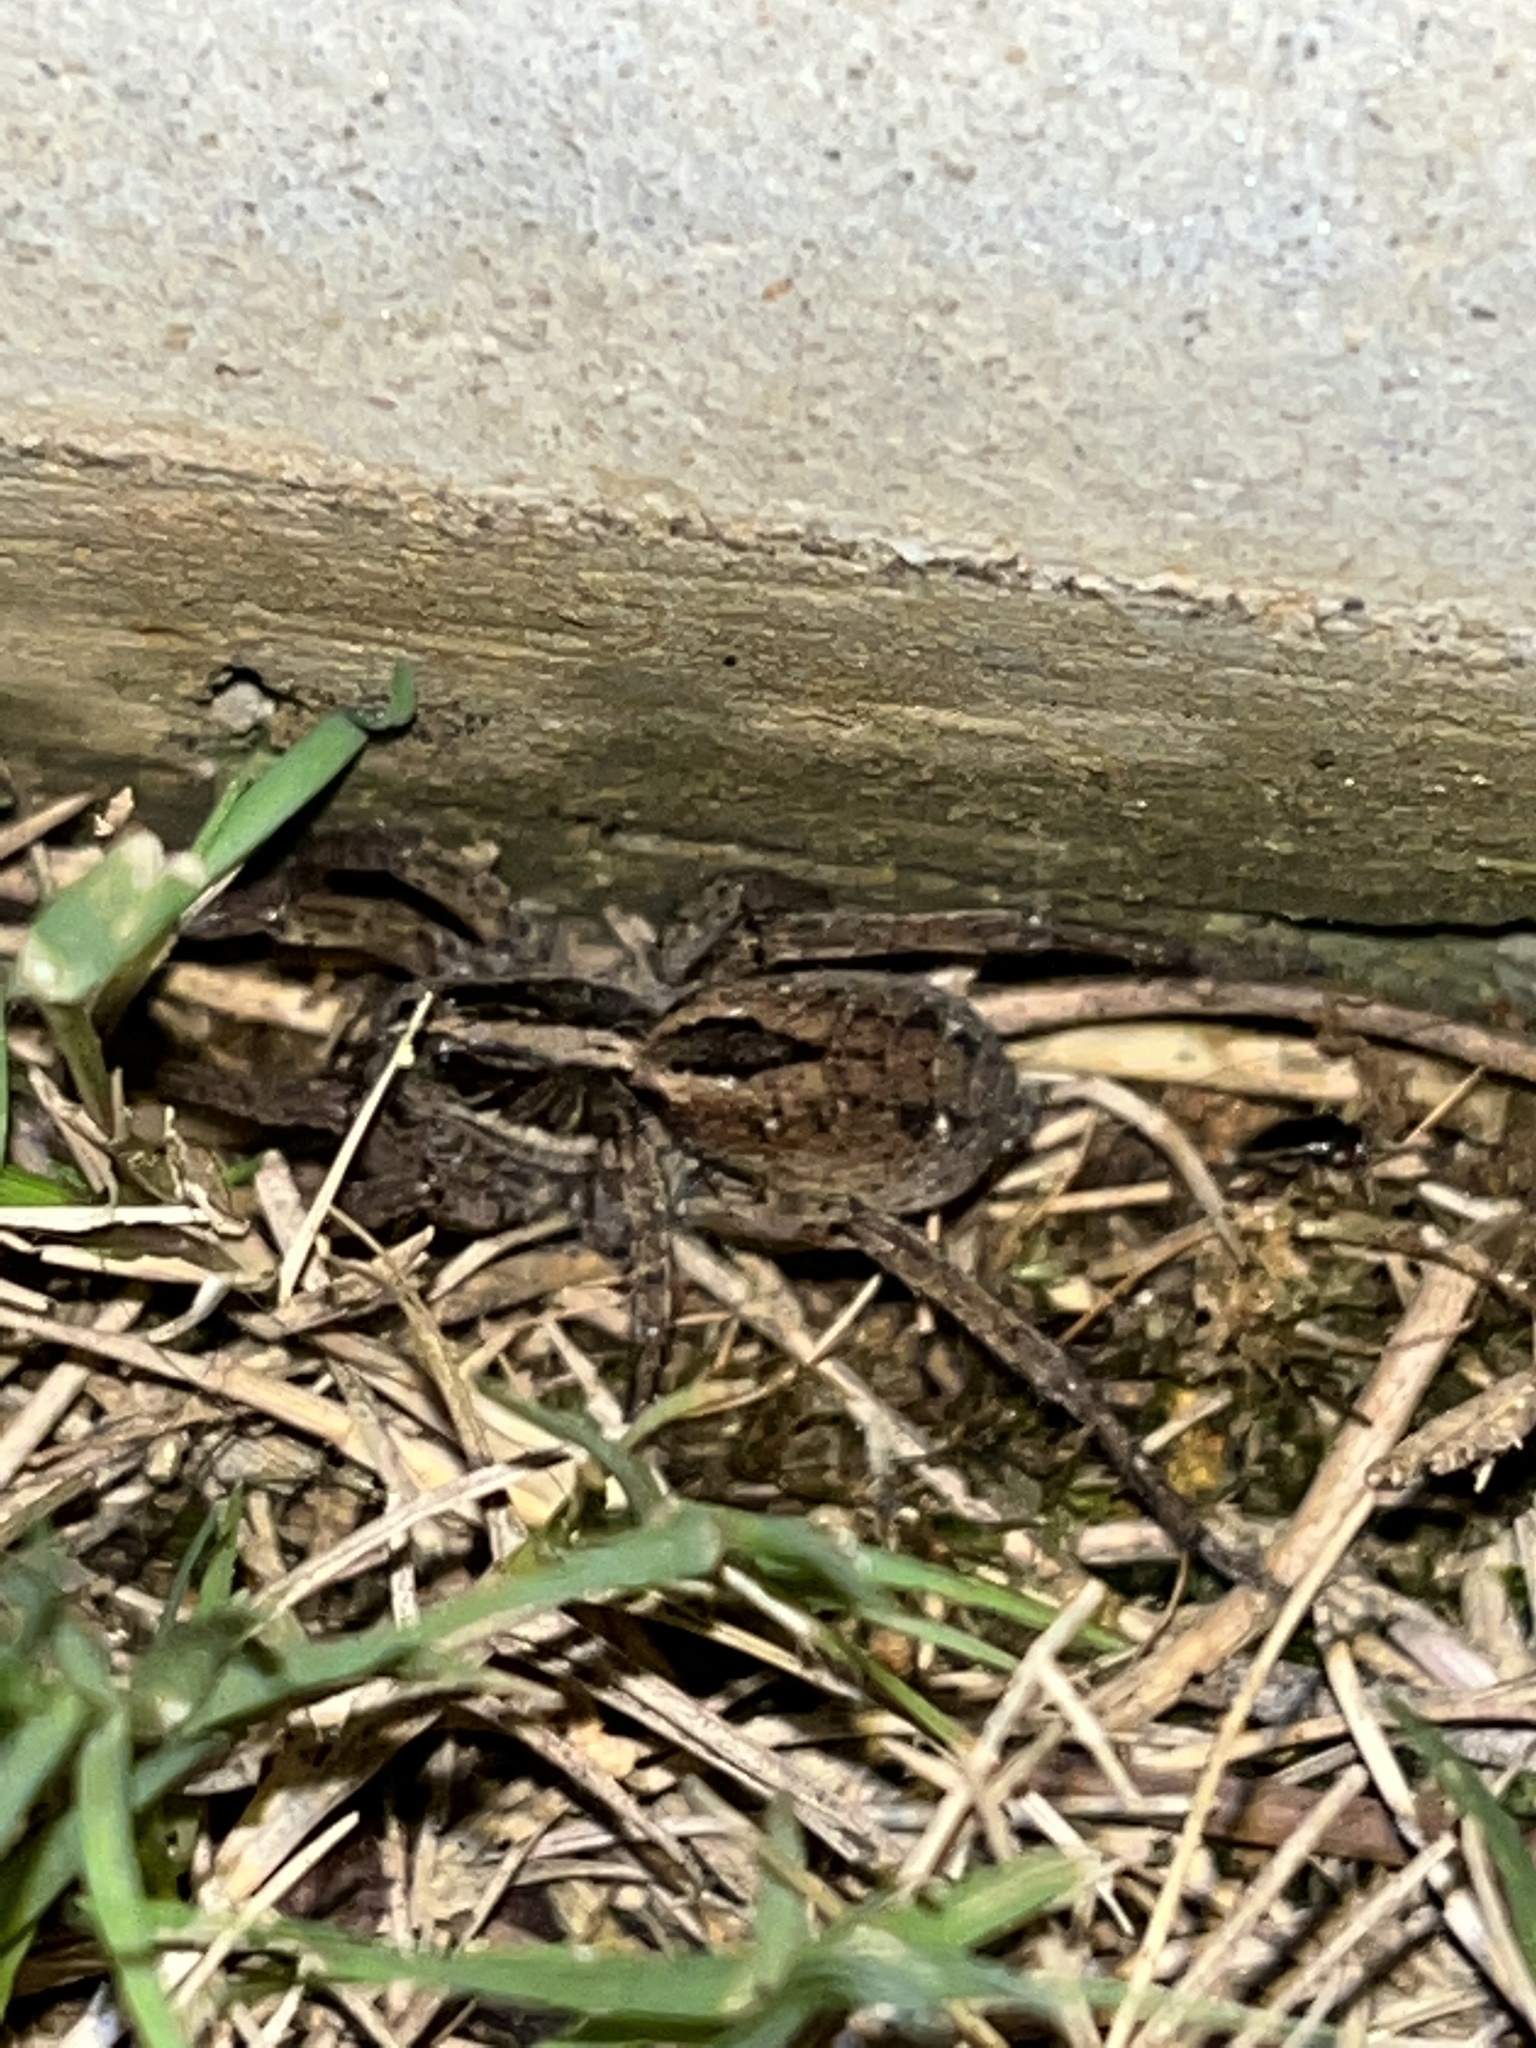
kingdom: Animalia
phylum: Arthropoda
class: Arachnida
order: Araneae
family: Lycosidae
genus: Tigrosa
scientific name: Tigrosa annexa
